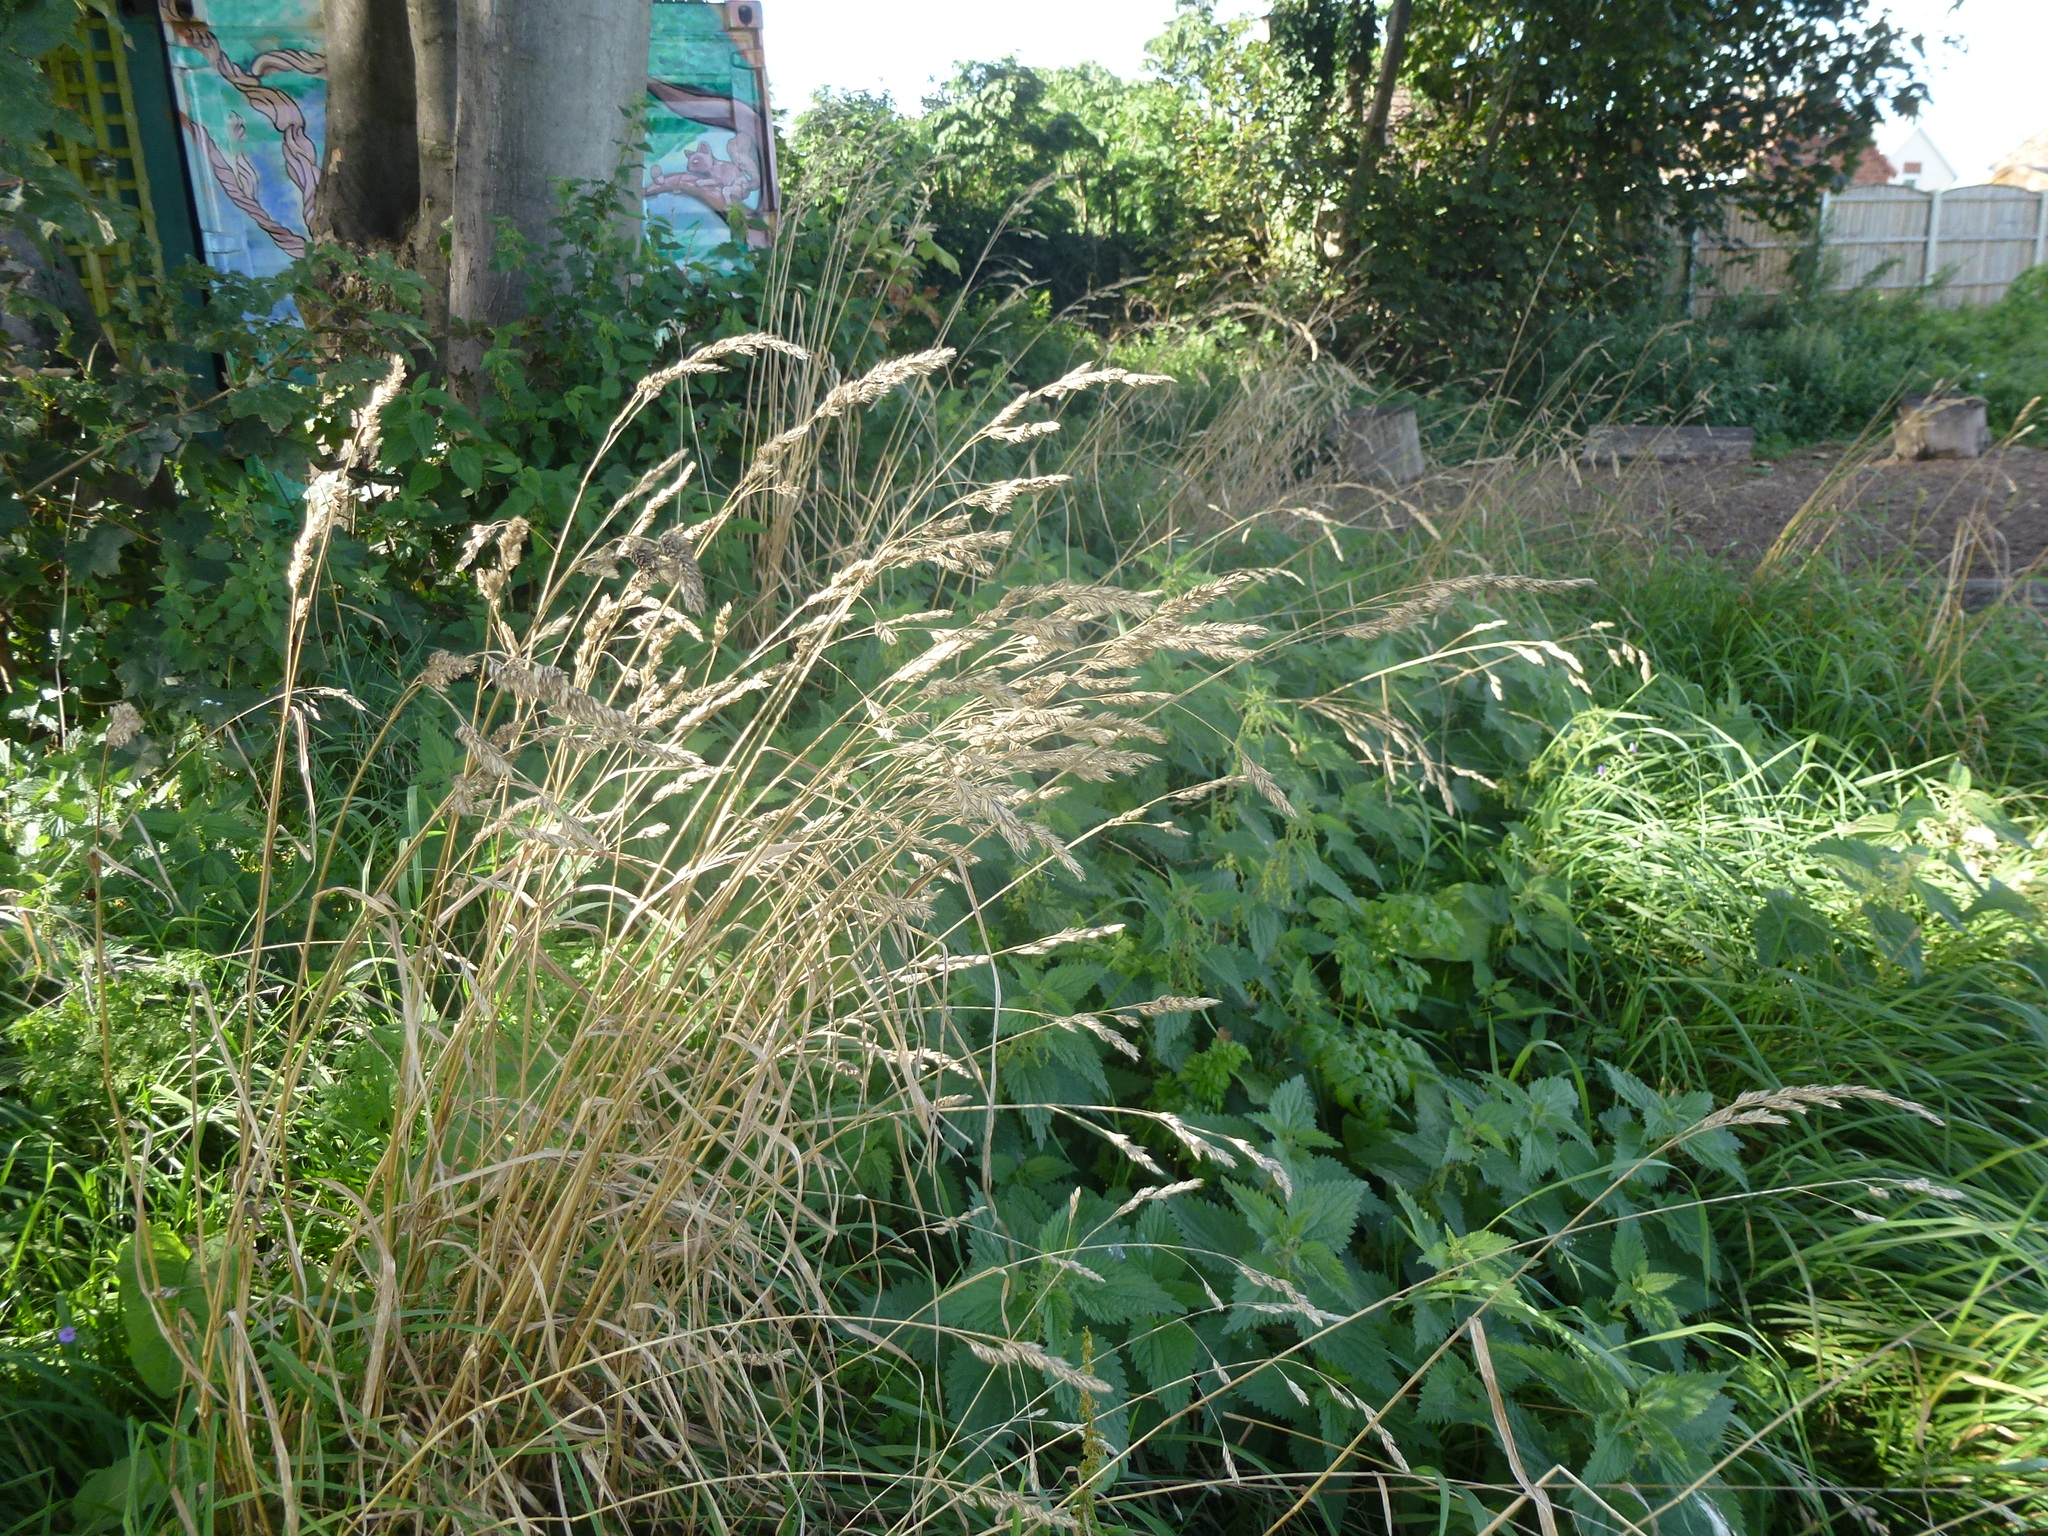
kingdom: Plantae
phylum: Tracheophyta
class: Liliopsida
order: Poales
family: Poaceae
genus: Dactylis
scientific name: Dactylis glomerata
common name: Orchardgrass
